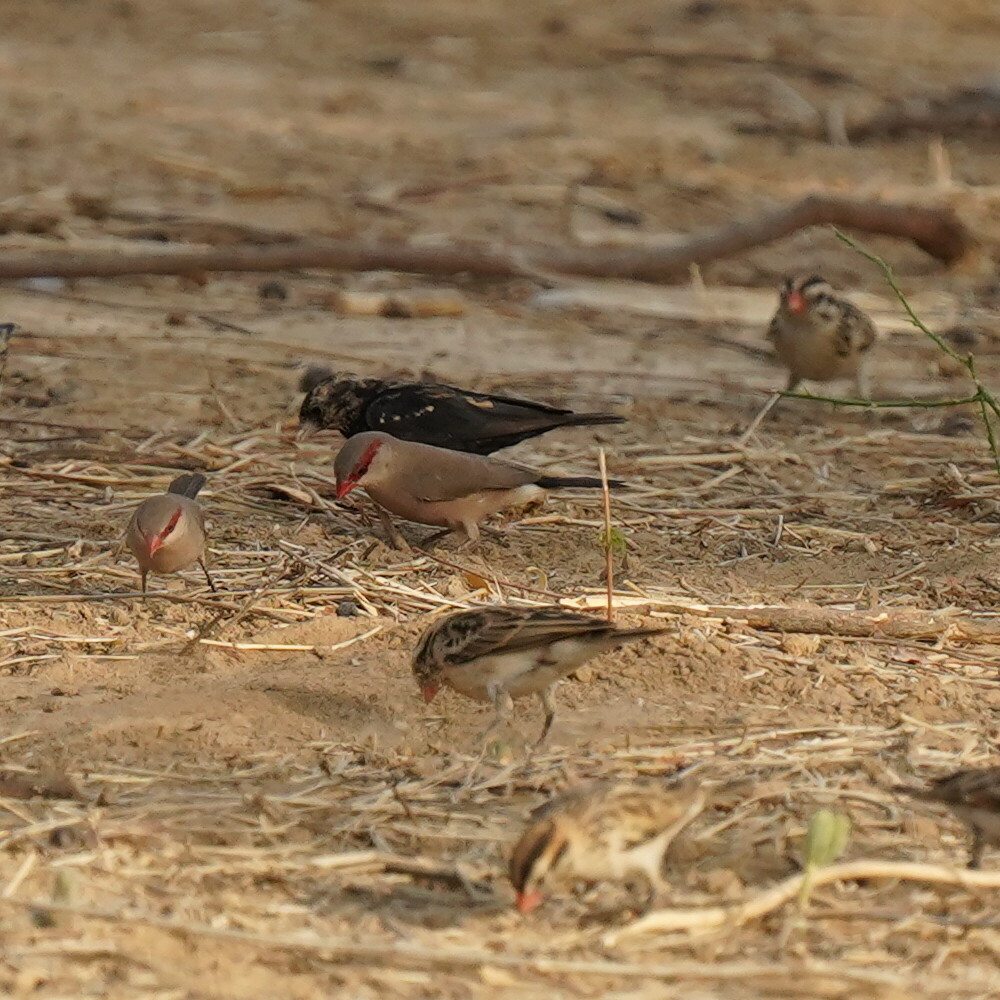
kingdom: Animalia
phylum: Chordata
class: Aves
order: Passeriformes
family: Estrildidae
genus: Estrilda
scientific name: Estrilda troglodytes
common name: Black-rumped waxbill
